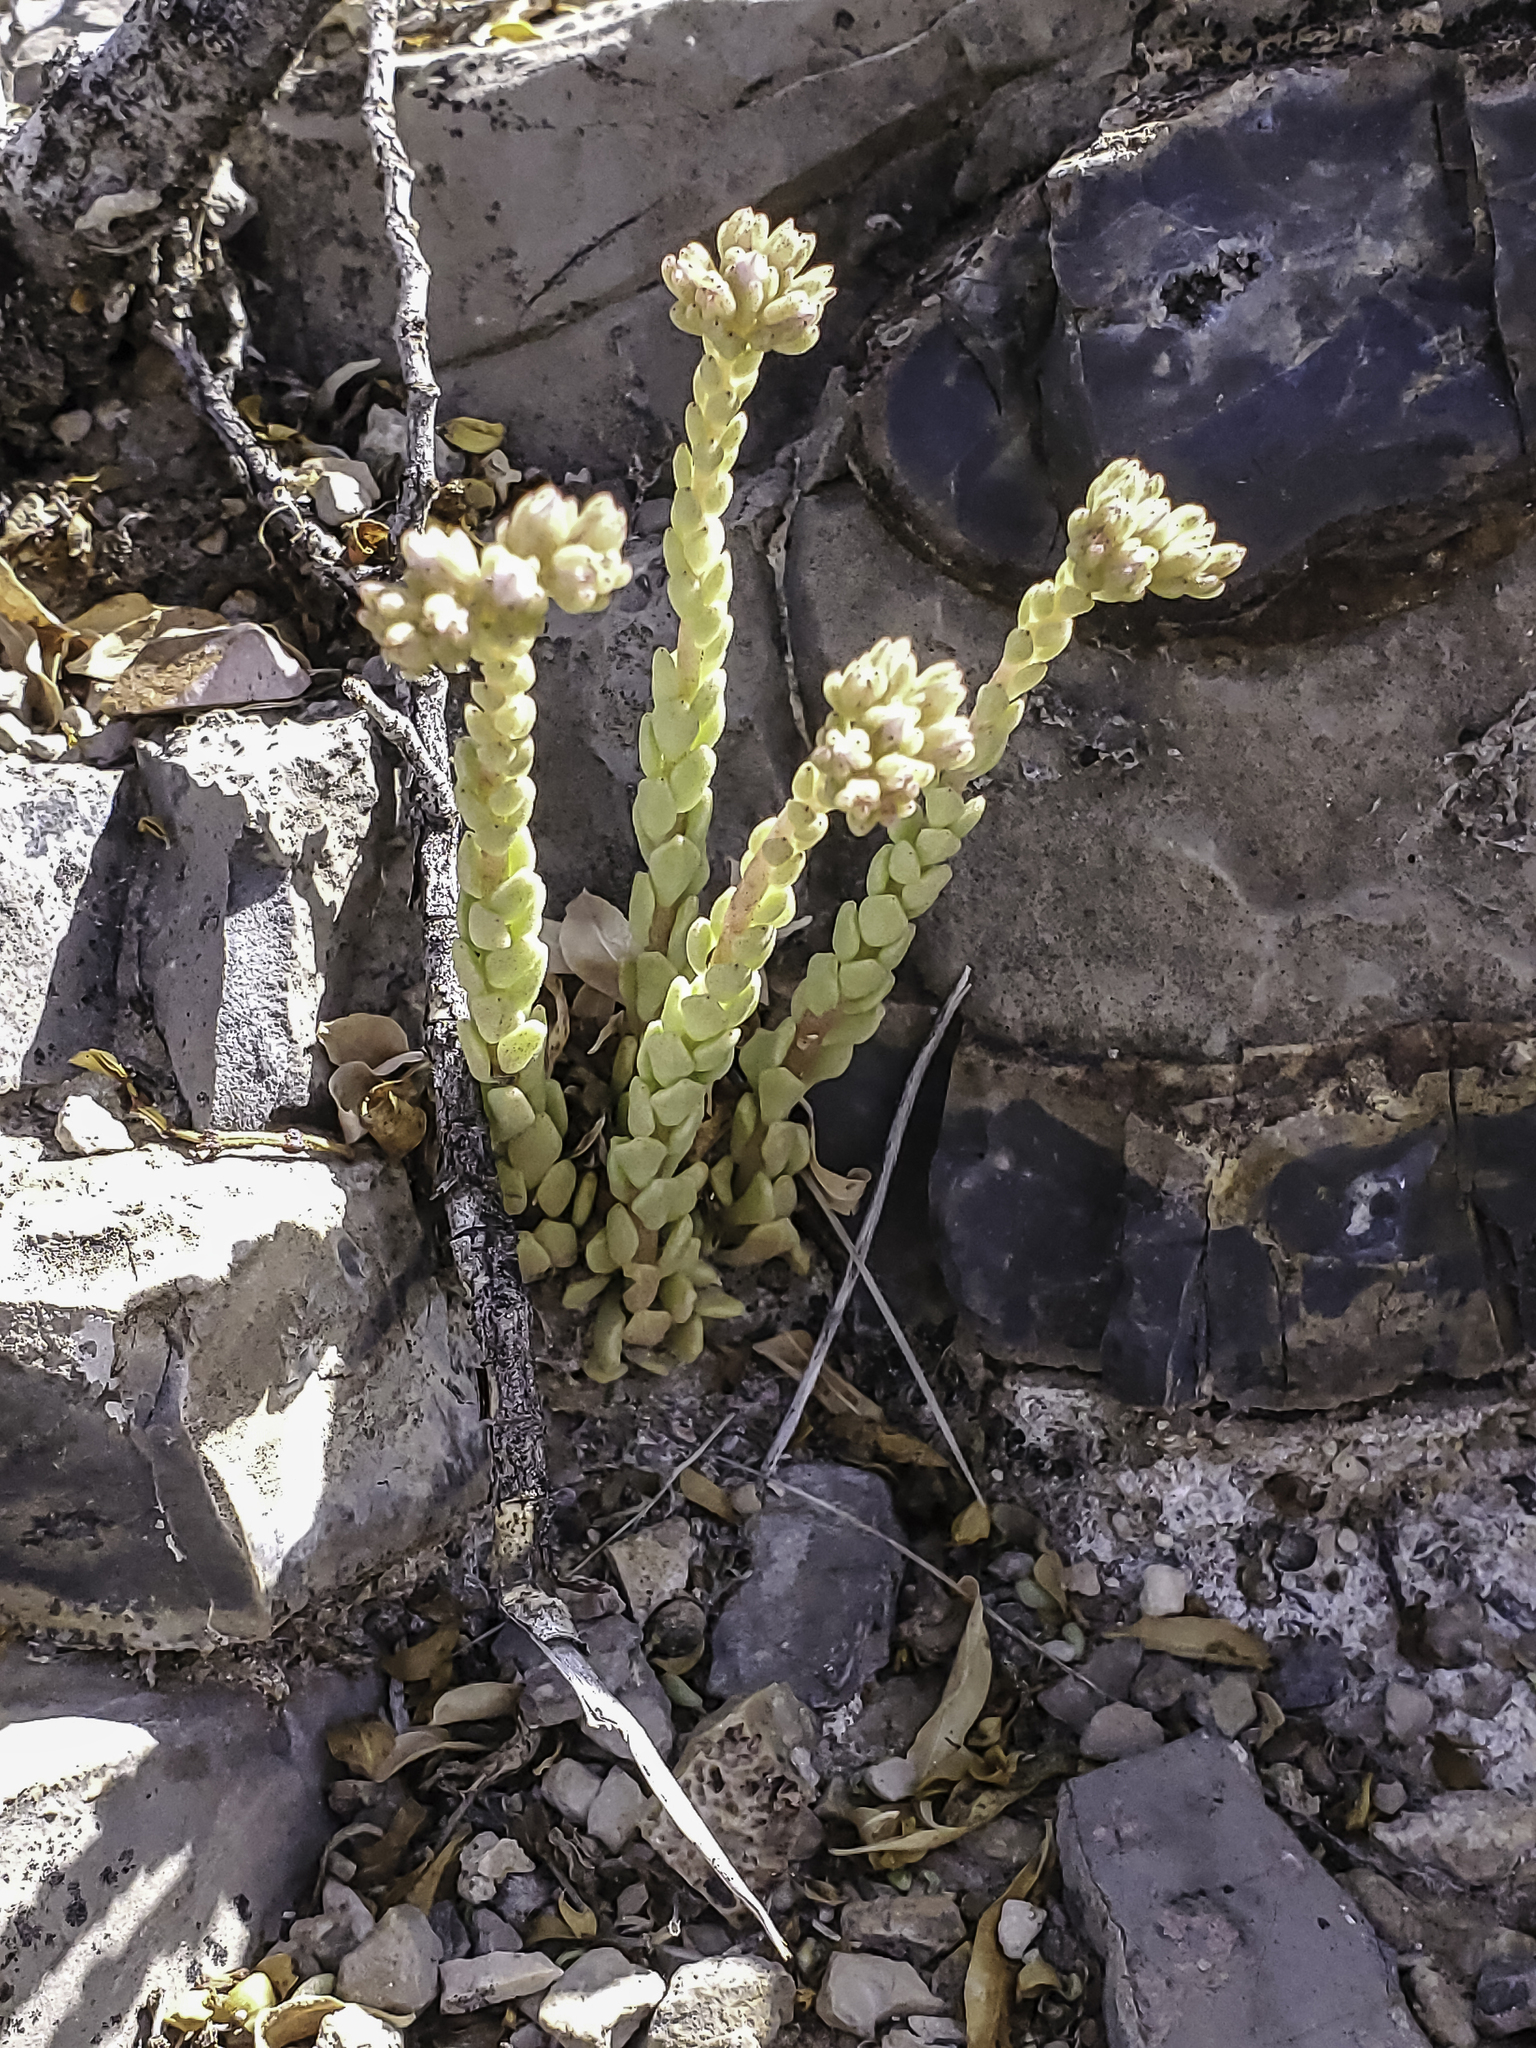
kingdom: Plantae
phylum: Tracheophyta
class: Magnoliopsida
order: Saxifragales
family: Crassulaceae
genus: Sedum
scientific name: Sedum wrightii
